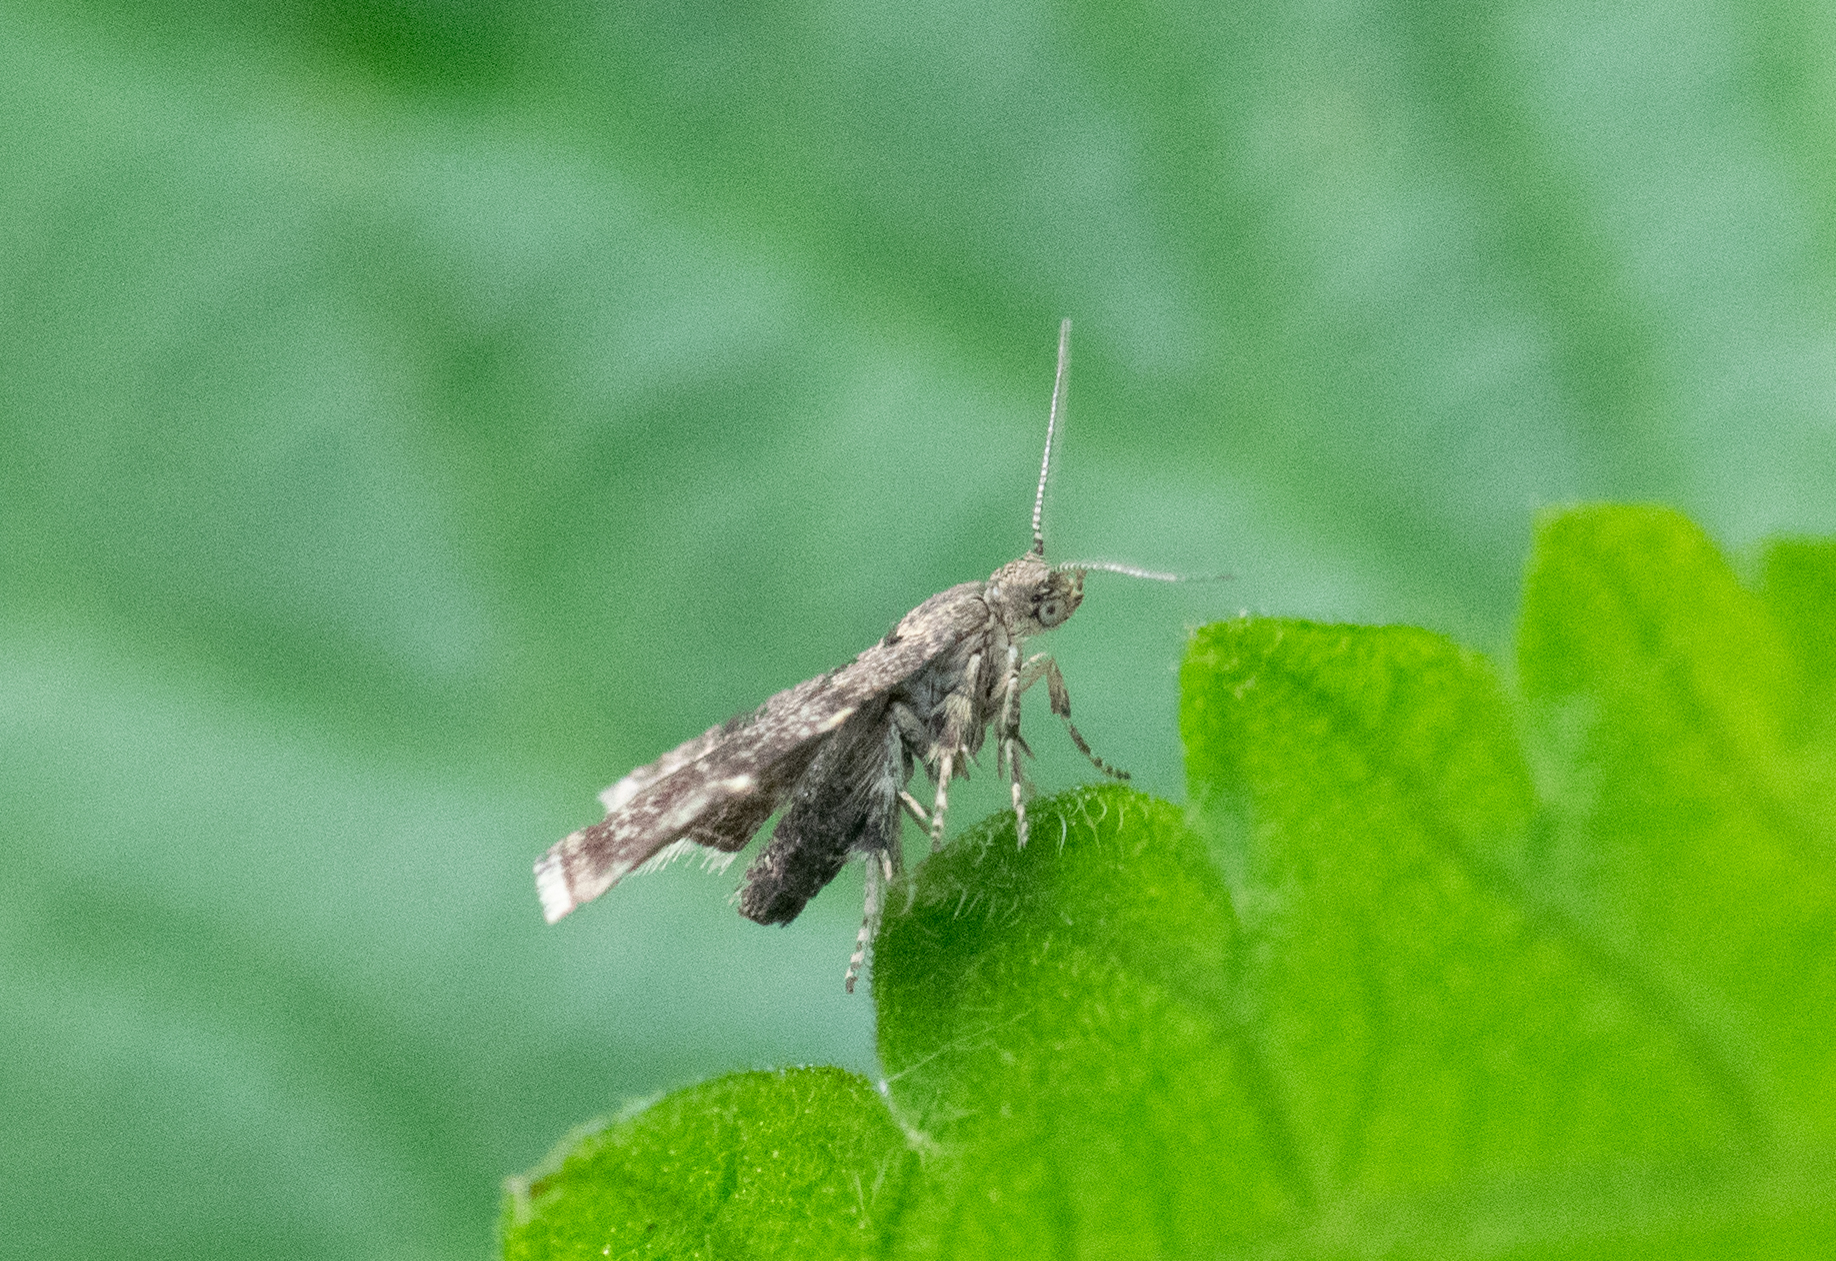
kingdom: Animalia
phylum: Arthropoda
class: Insecta
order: Lepidoptera
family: Choreutidae
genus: Anthophila
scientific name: Anthophila fabriciana
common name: Nettle-tap
